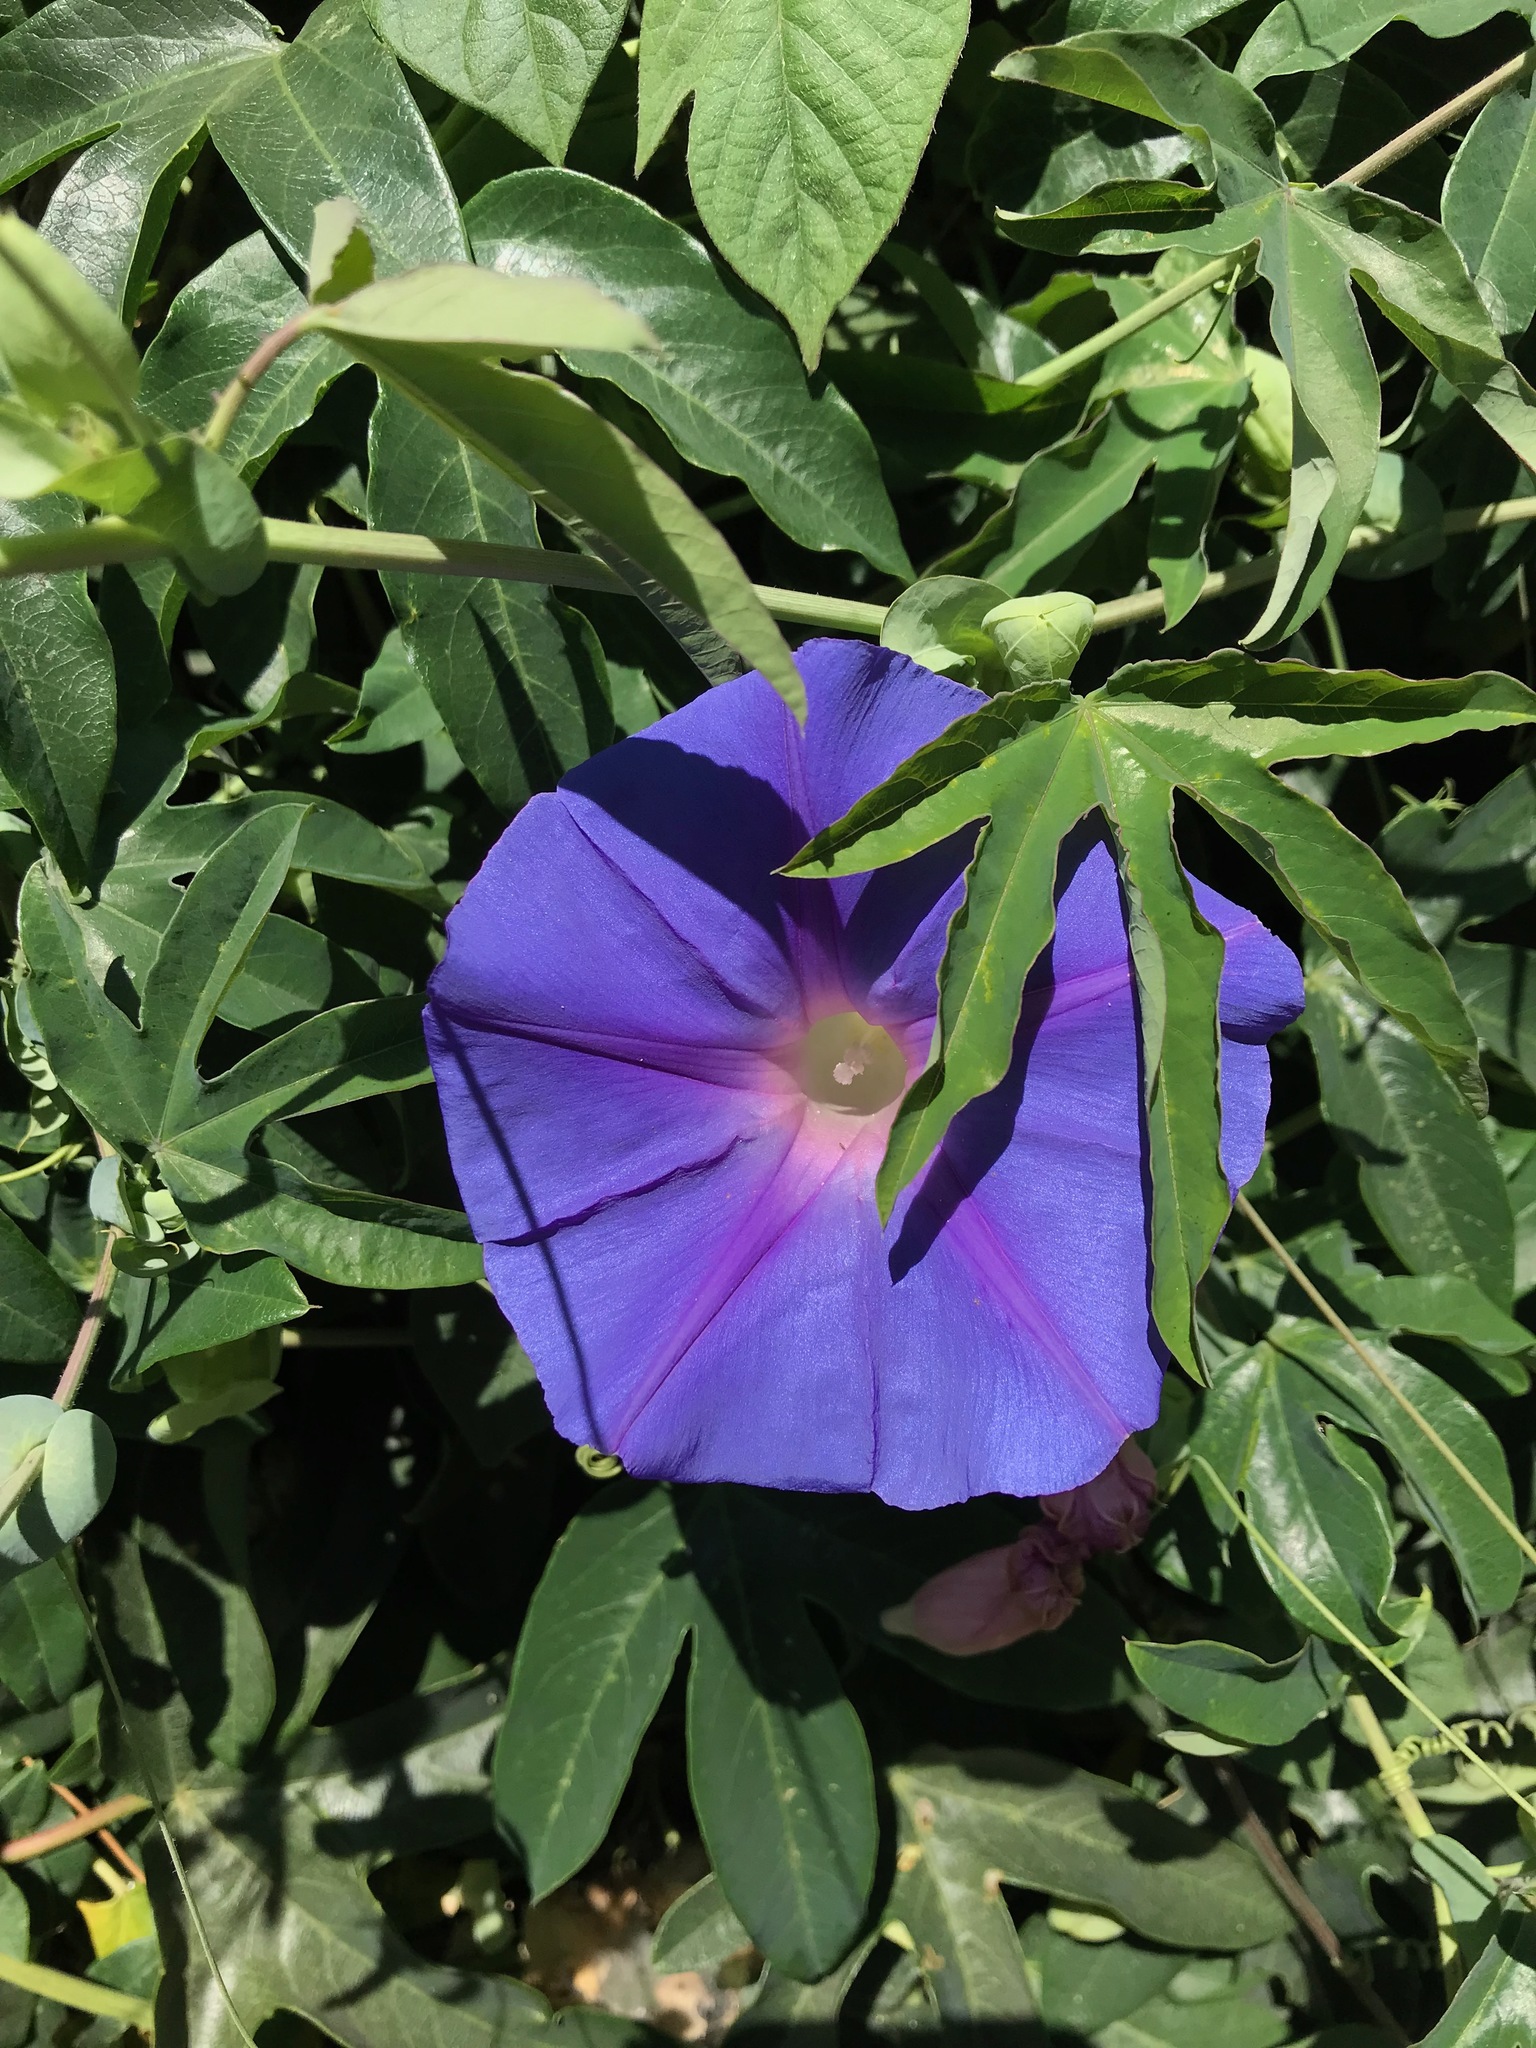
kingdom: Plantae
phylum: Tracheophyta
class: Magnoliopsida
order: Solanales
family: Convolvulaceae
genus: Ipomoea
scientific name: Ipomoea indica
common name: Blue dawnflower
